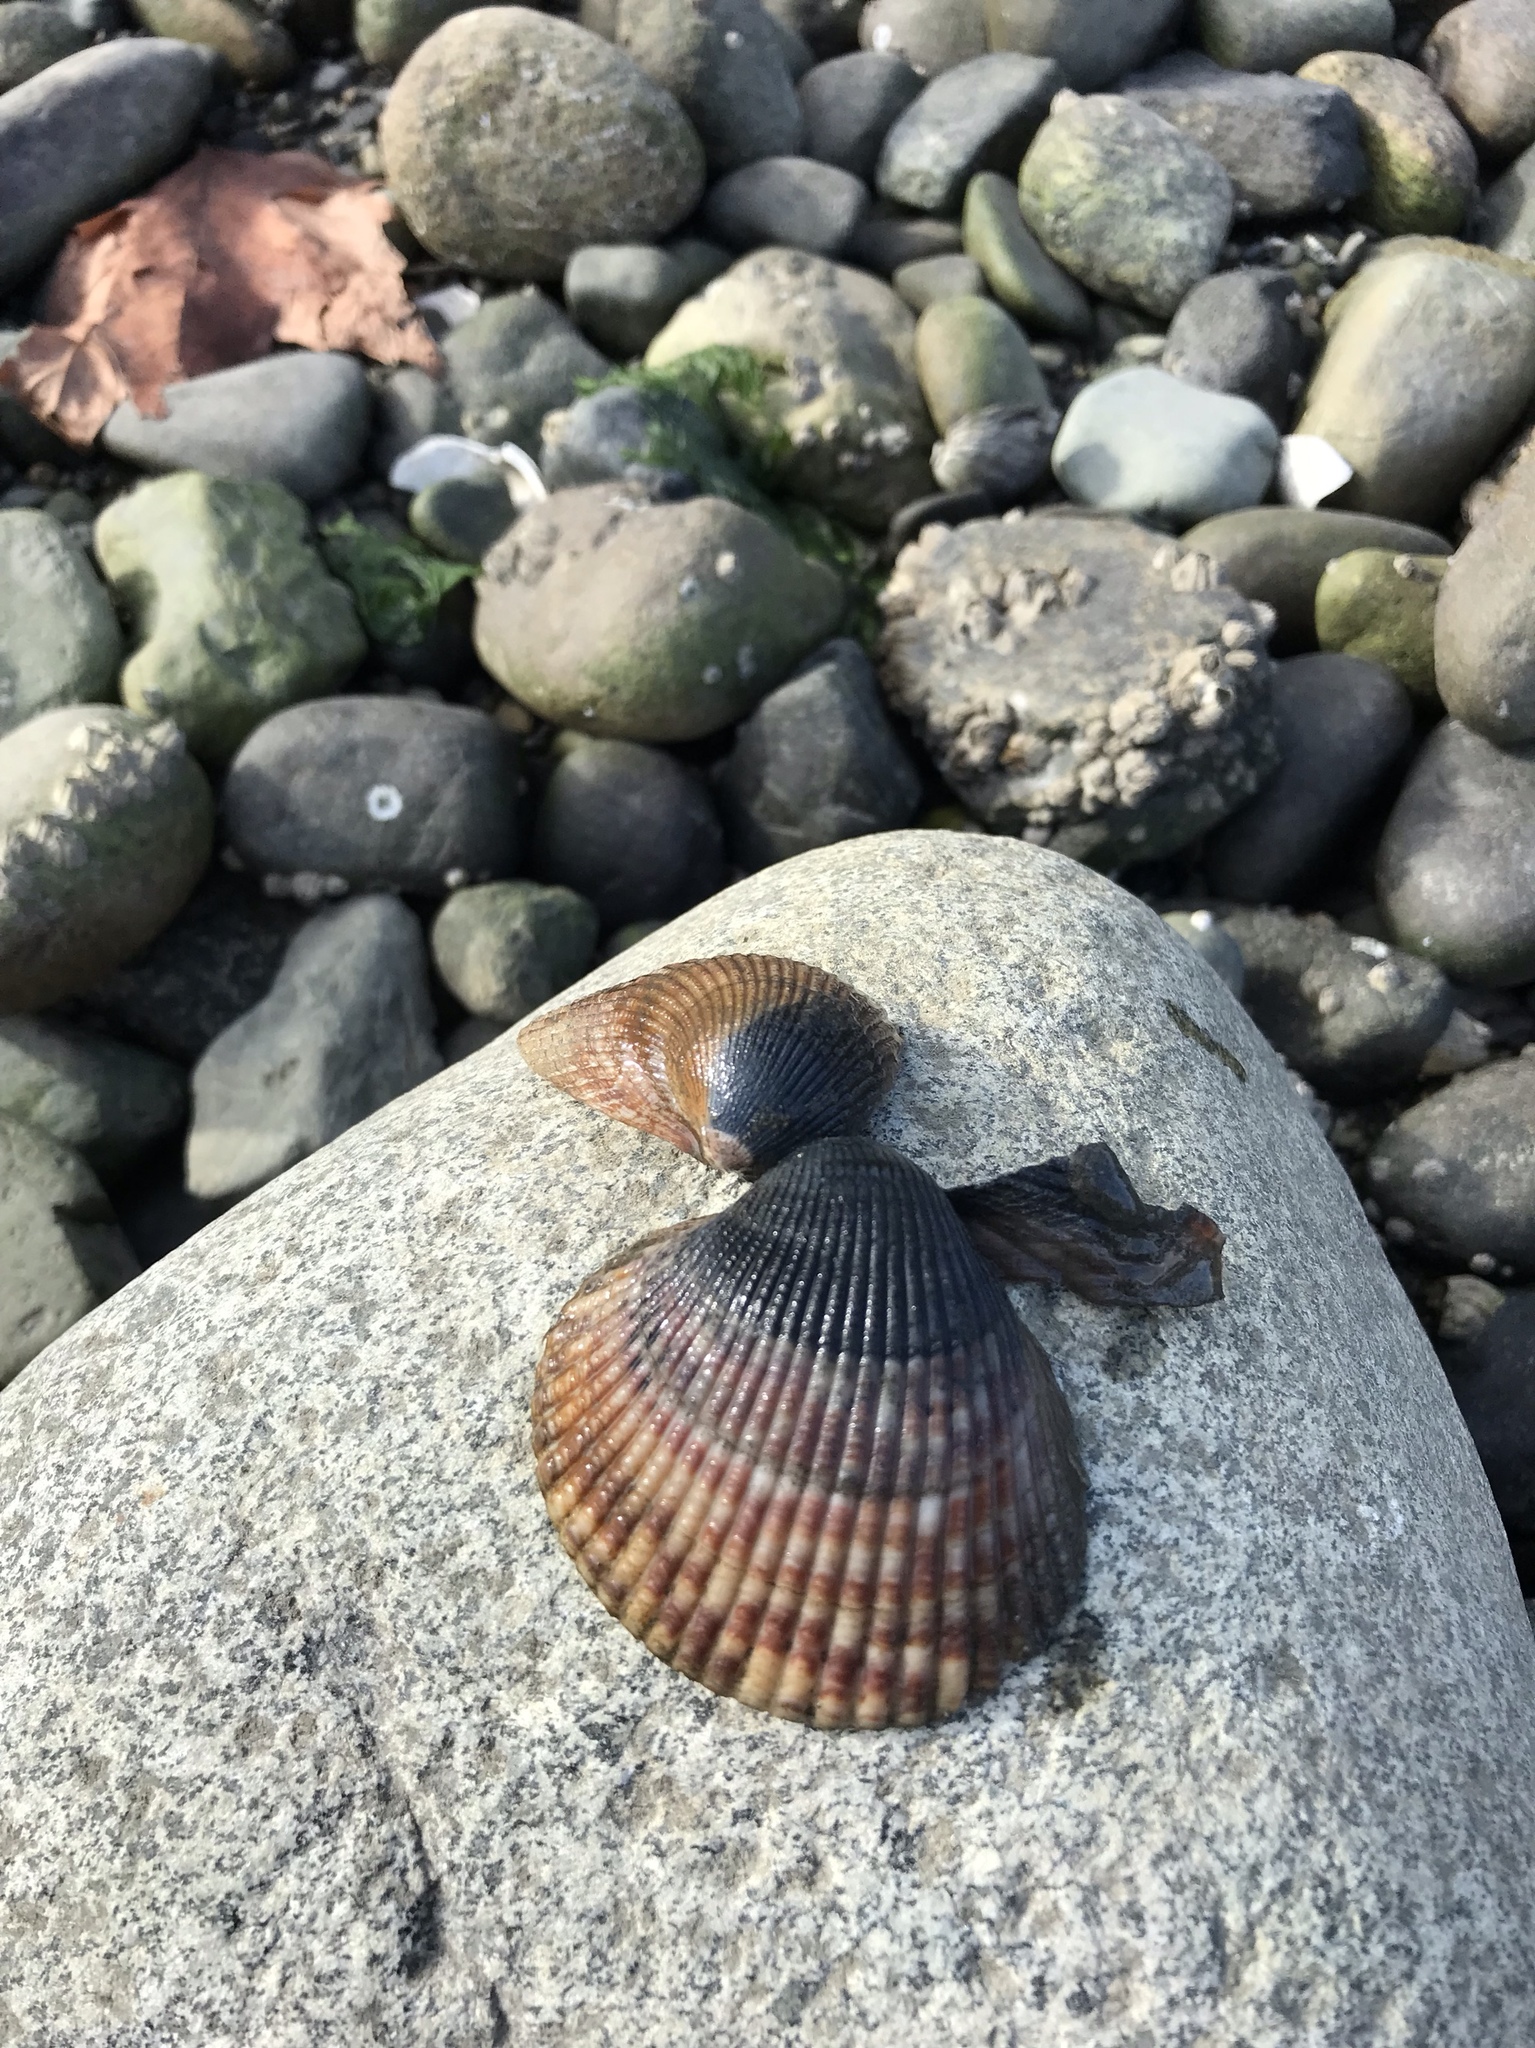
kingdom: Animalia
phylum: Mollusca
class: Bivalvia
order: Cardiida
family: Cardiidae
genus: Clinocardium
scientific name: Clinocardium nuttallii
